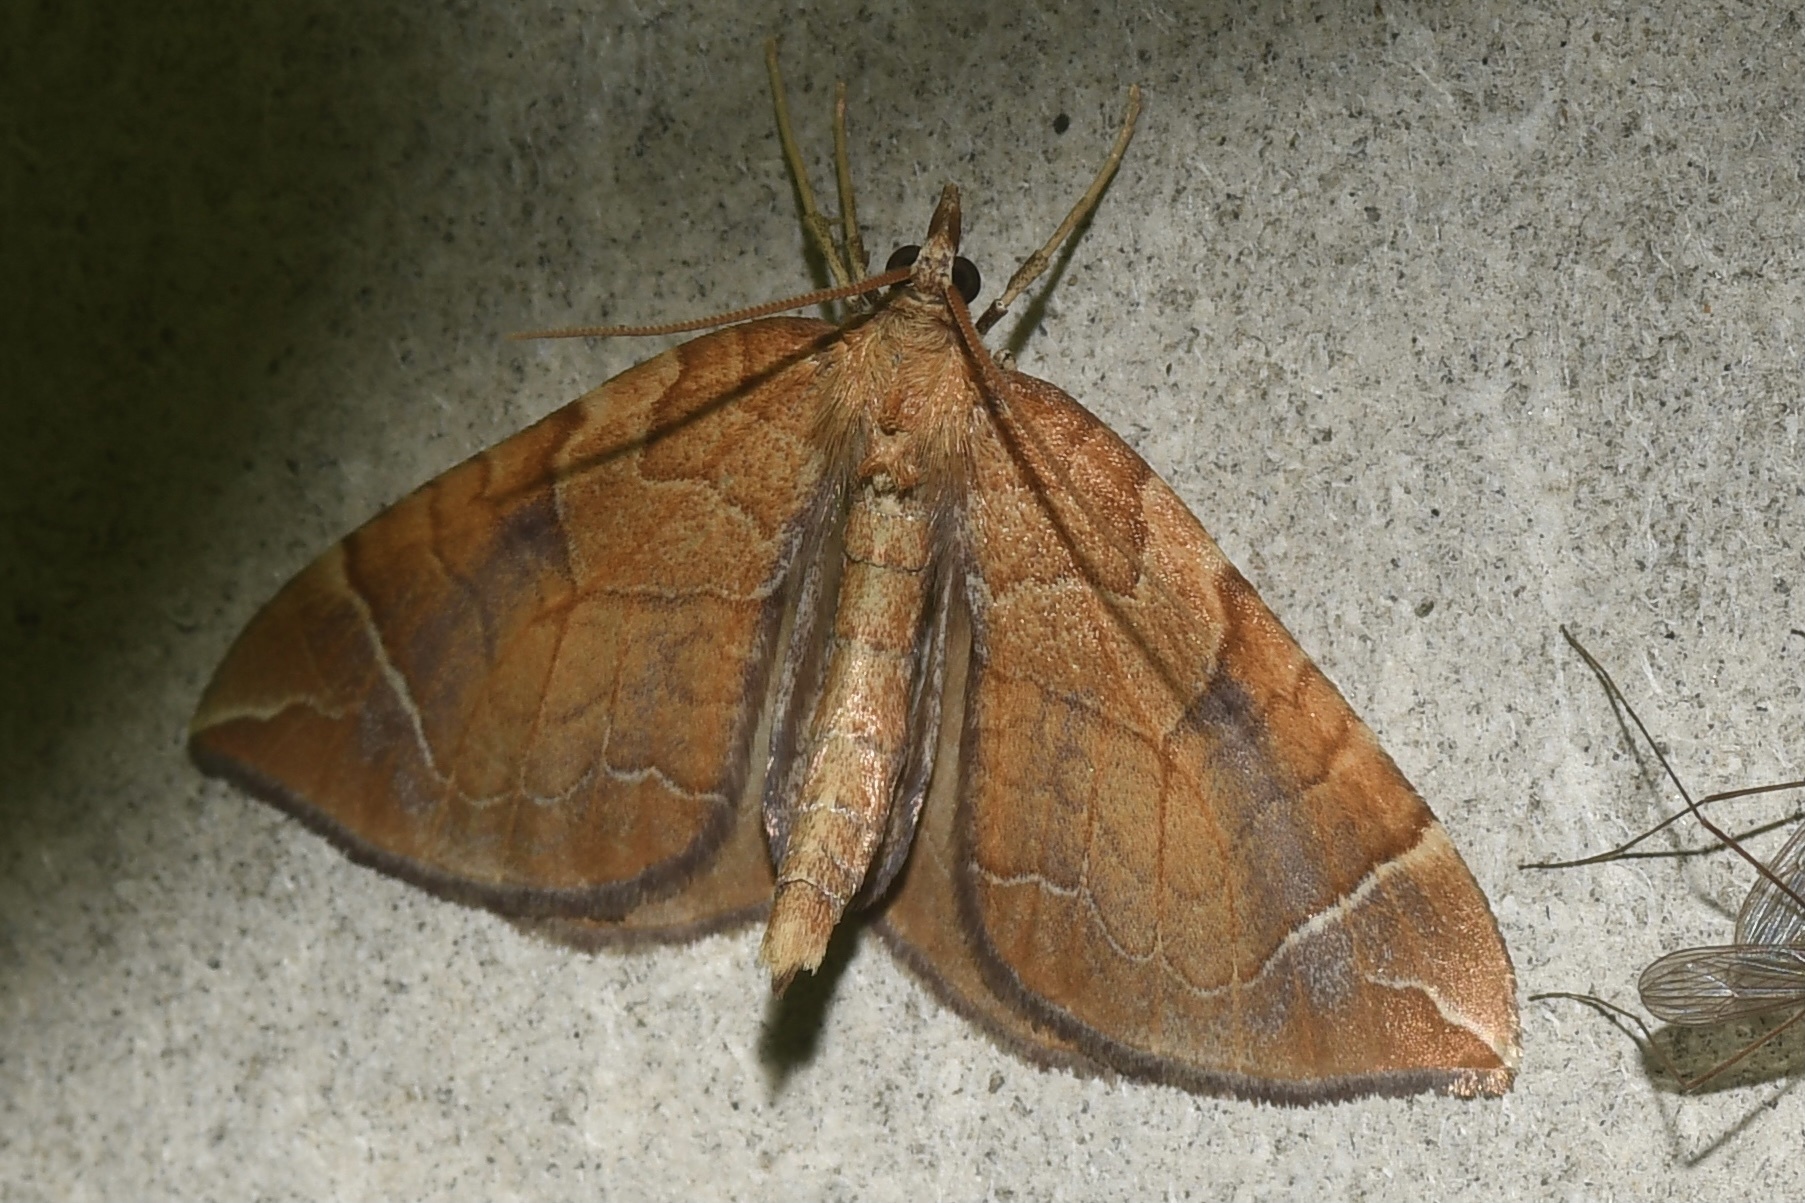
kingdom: Animalia
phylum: Arthropoda
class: Insecta
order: Lepidoptera
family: Geometridae
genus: Eulithis
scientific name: Eulithis testata
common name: Chevron
